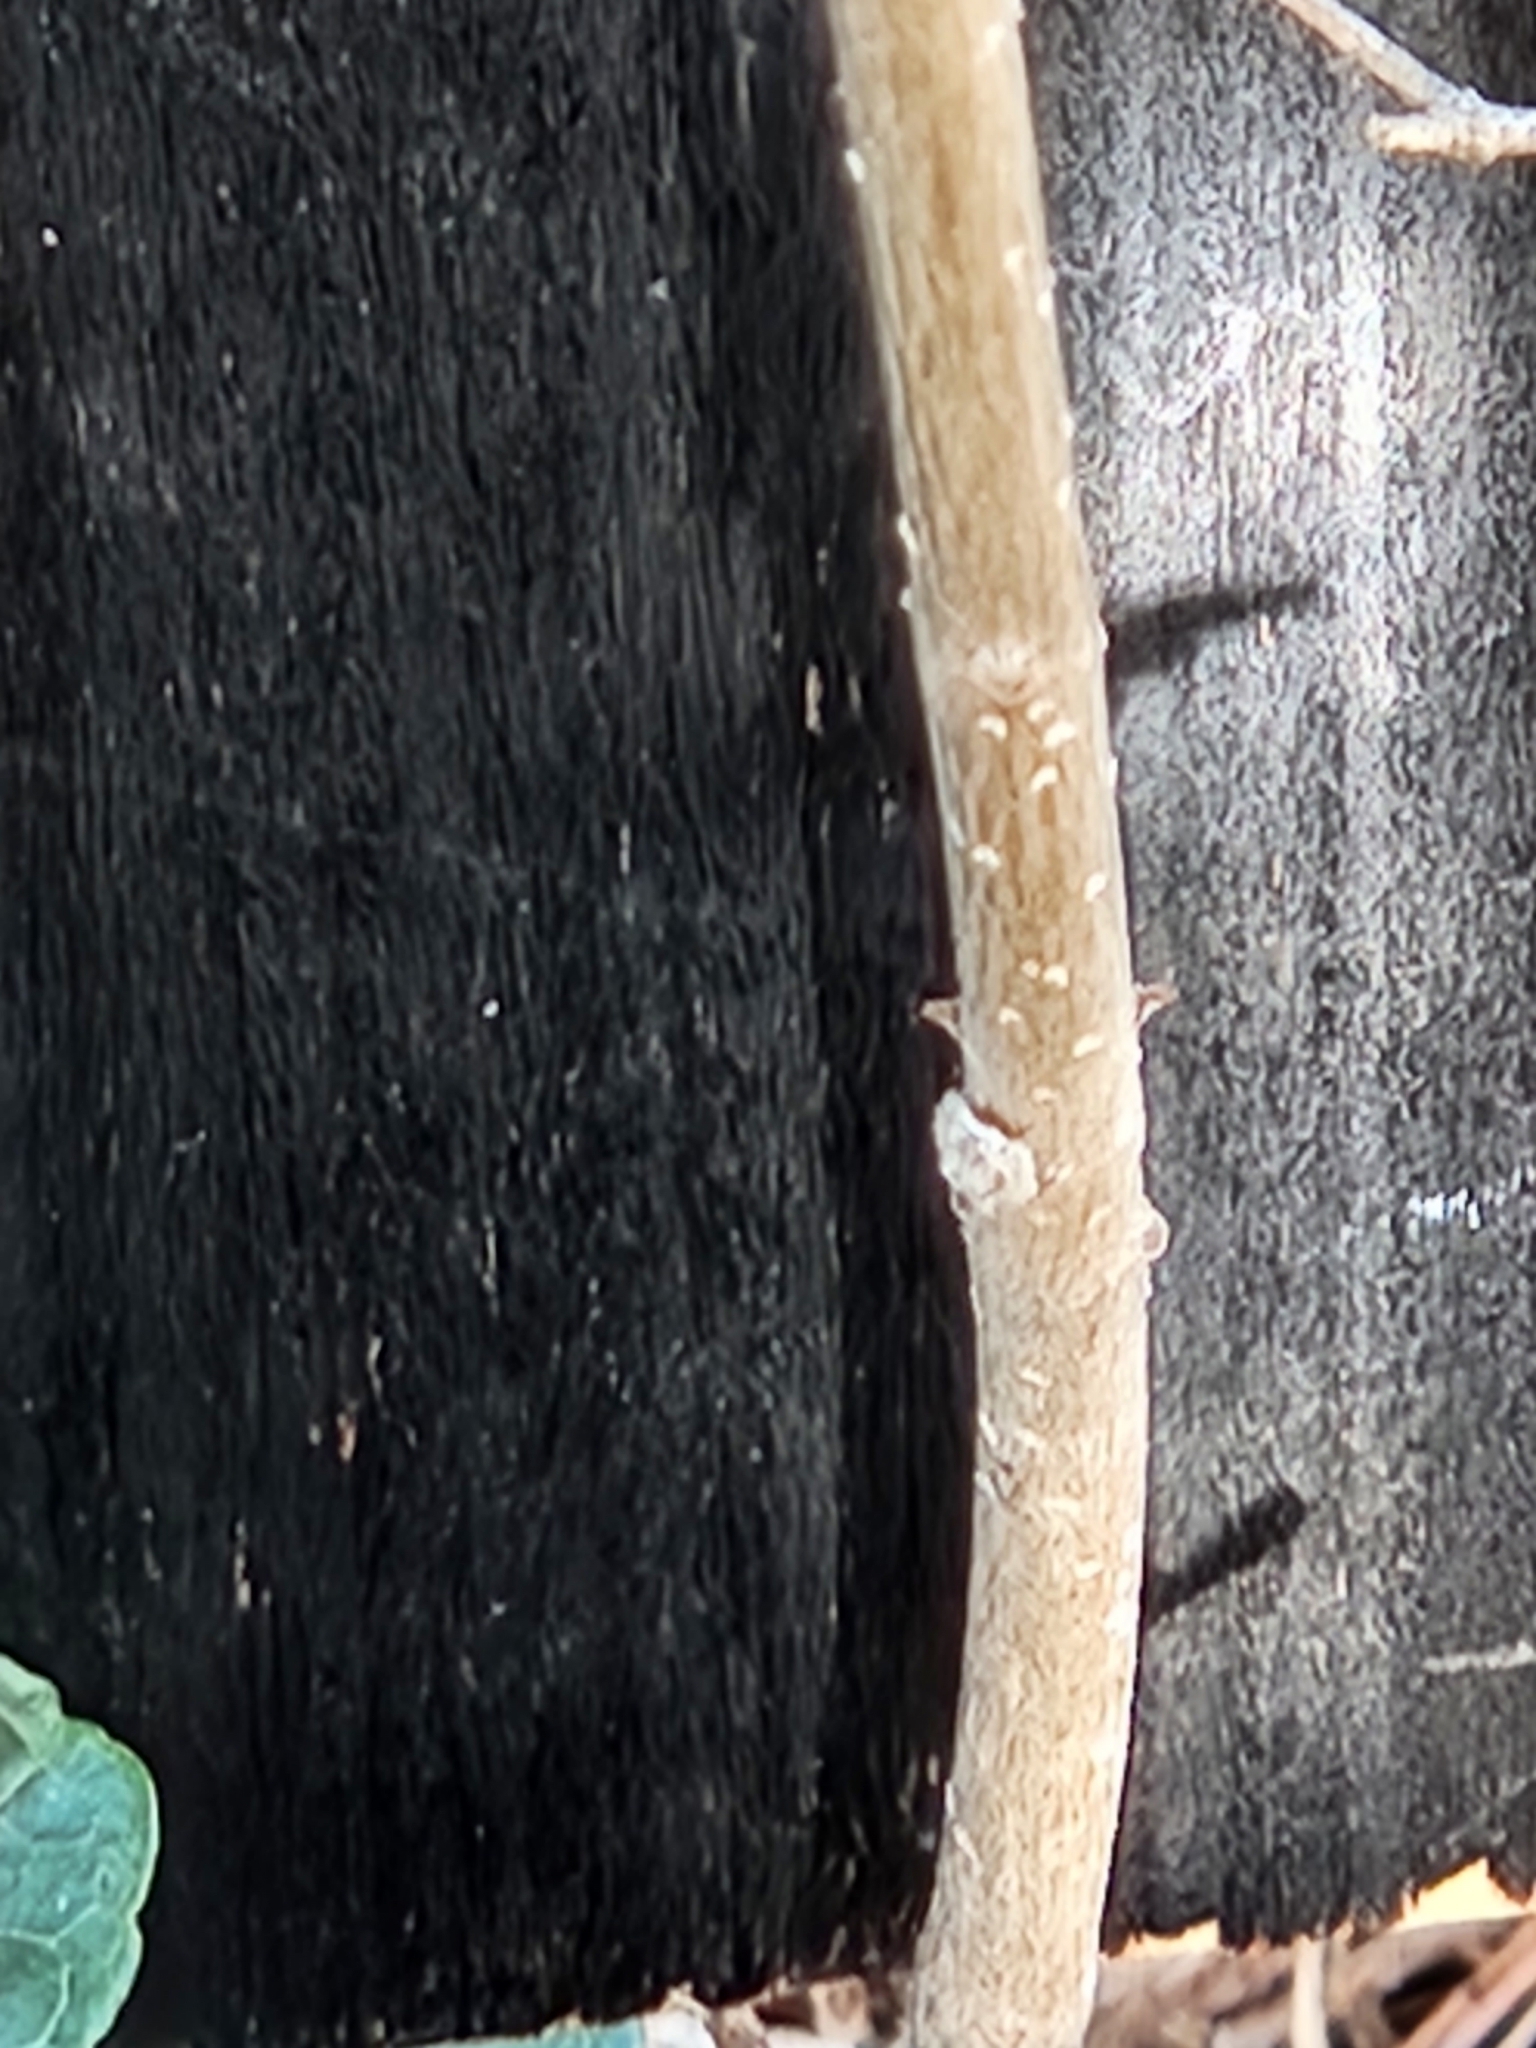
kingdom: Plantae
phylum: Tracheophyta
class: Magnoliopsida
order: Lamiales
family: Oleaceae
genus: Forestiera
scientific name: Forestiera reticulata
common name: Netleaf swamp-privet
